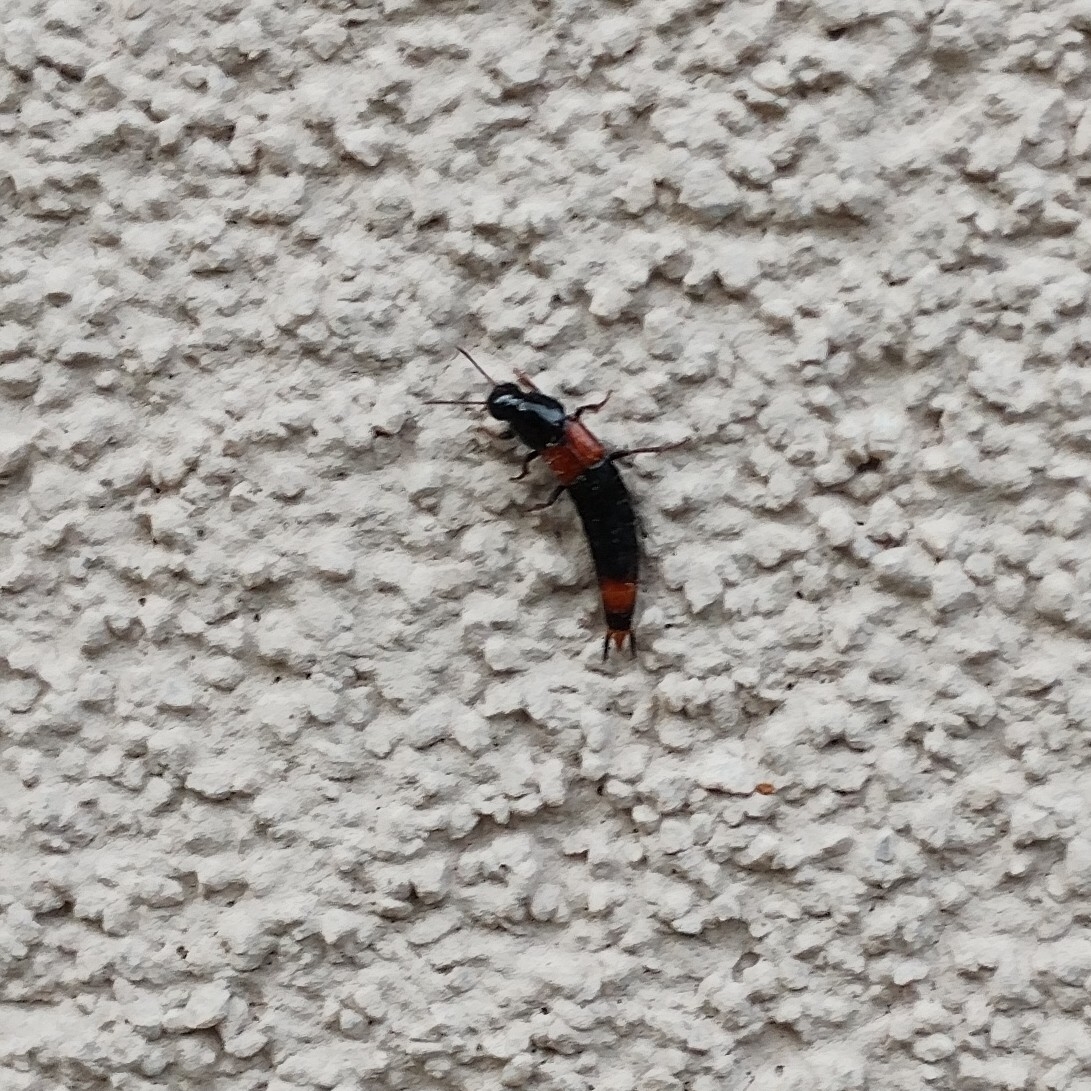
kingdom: Animalia
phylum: Arthropoda
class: Insecta
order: Coleoptera
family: Staphylinidae
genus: Astrapaeus
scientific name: Astrapaeus ulmi
